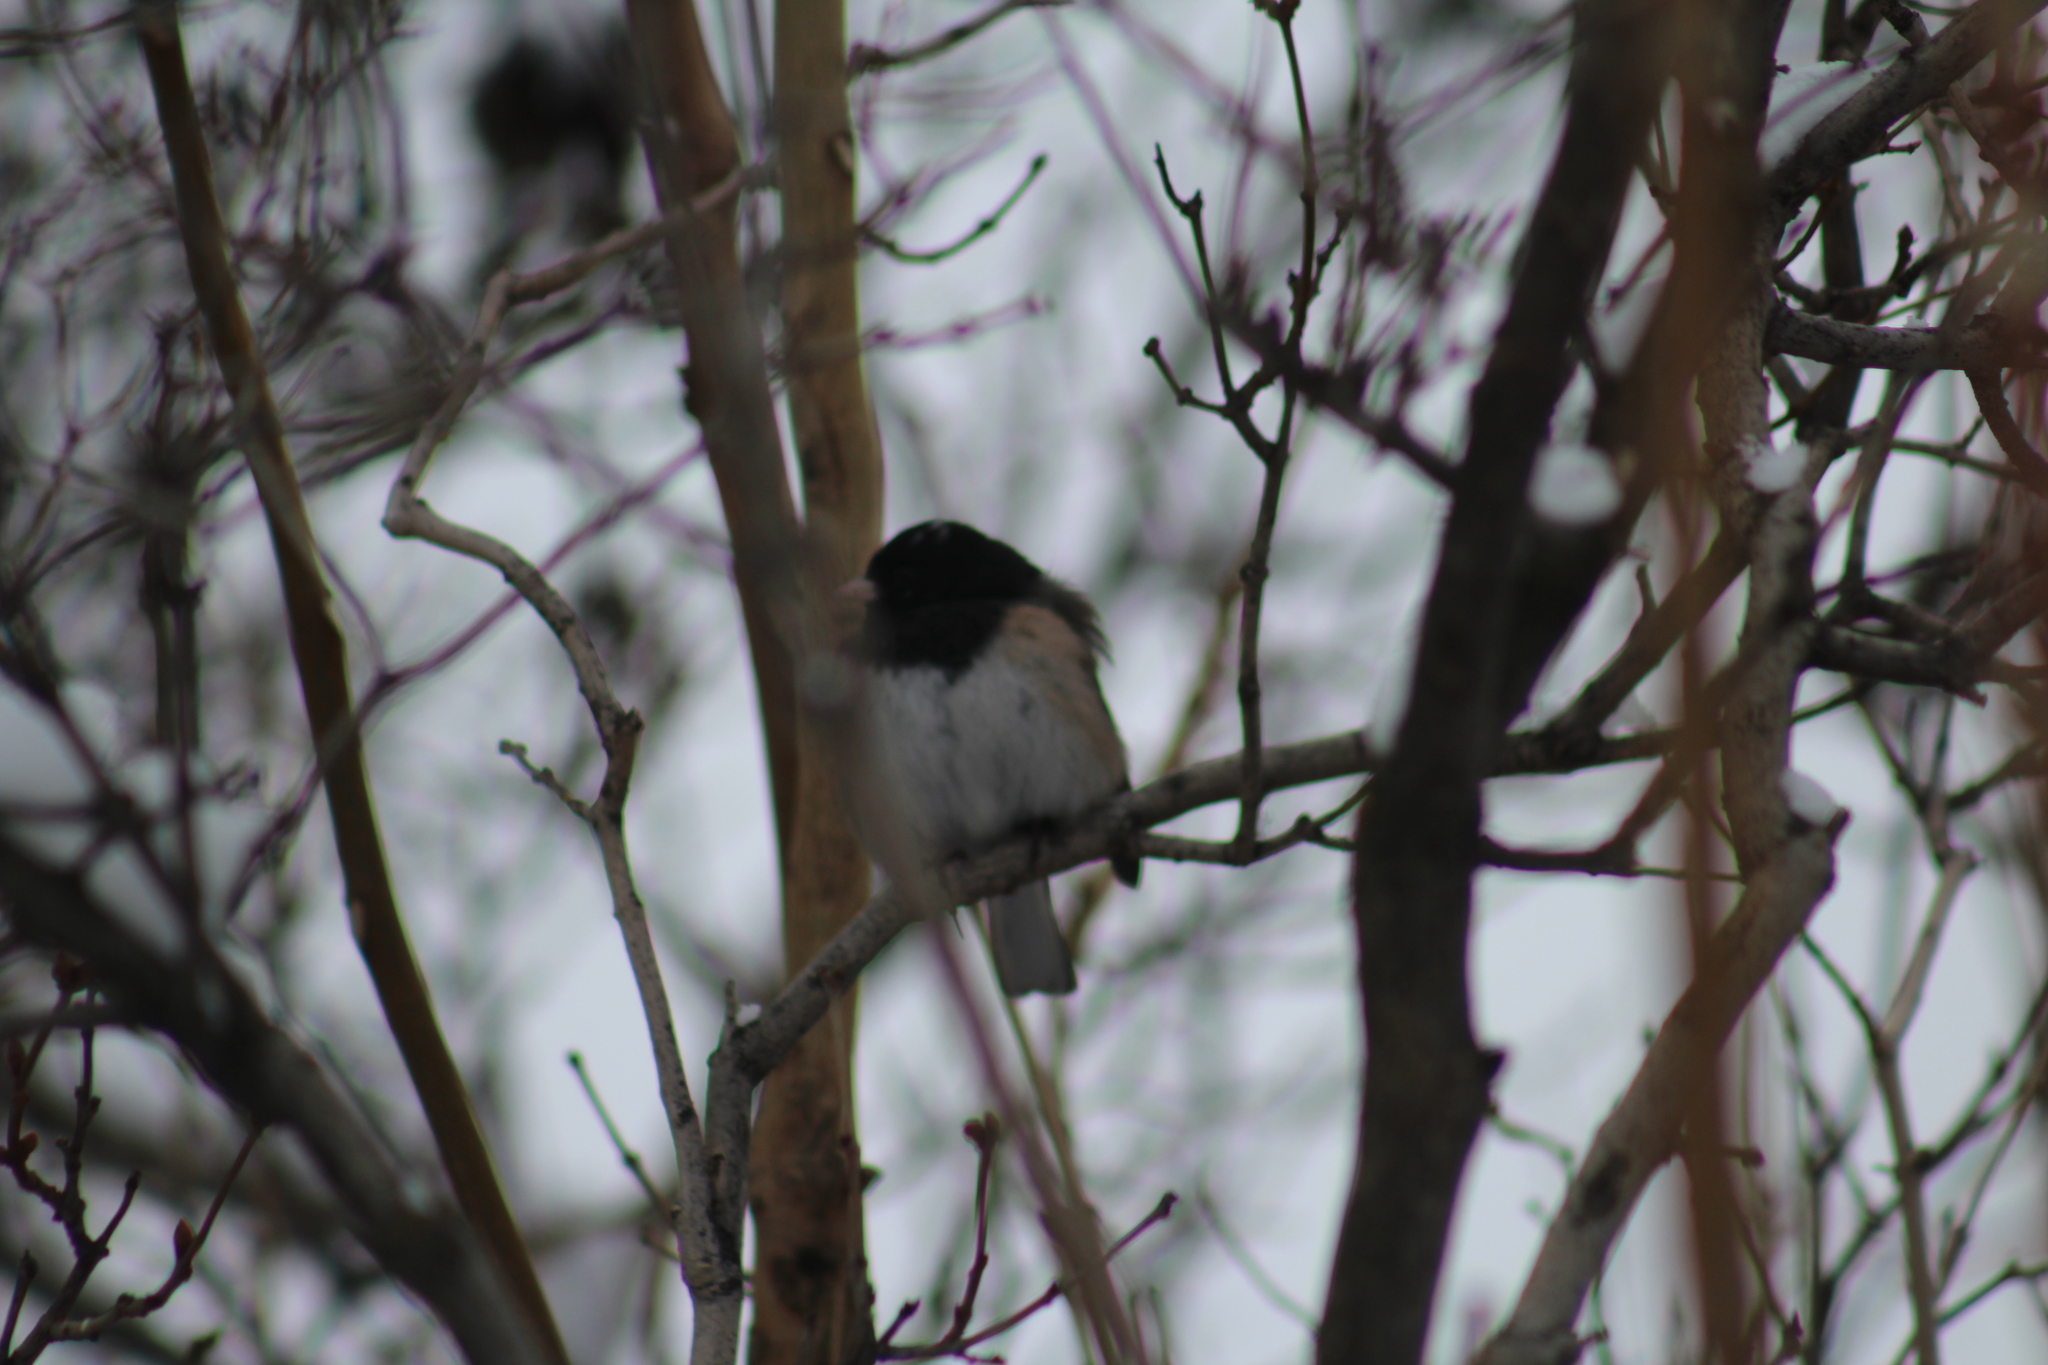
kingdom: Animalia
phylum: Chordata
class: Aves
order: Passeriformes
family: Passerellidae
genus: Junco
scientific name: Junco hyemalis
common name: Dark-eyed junco
